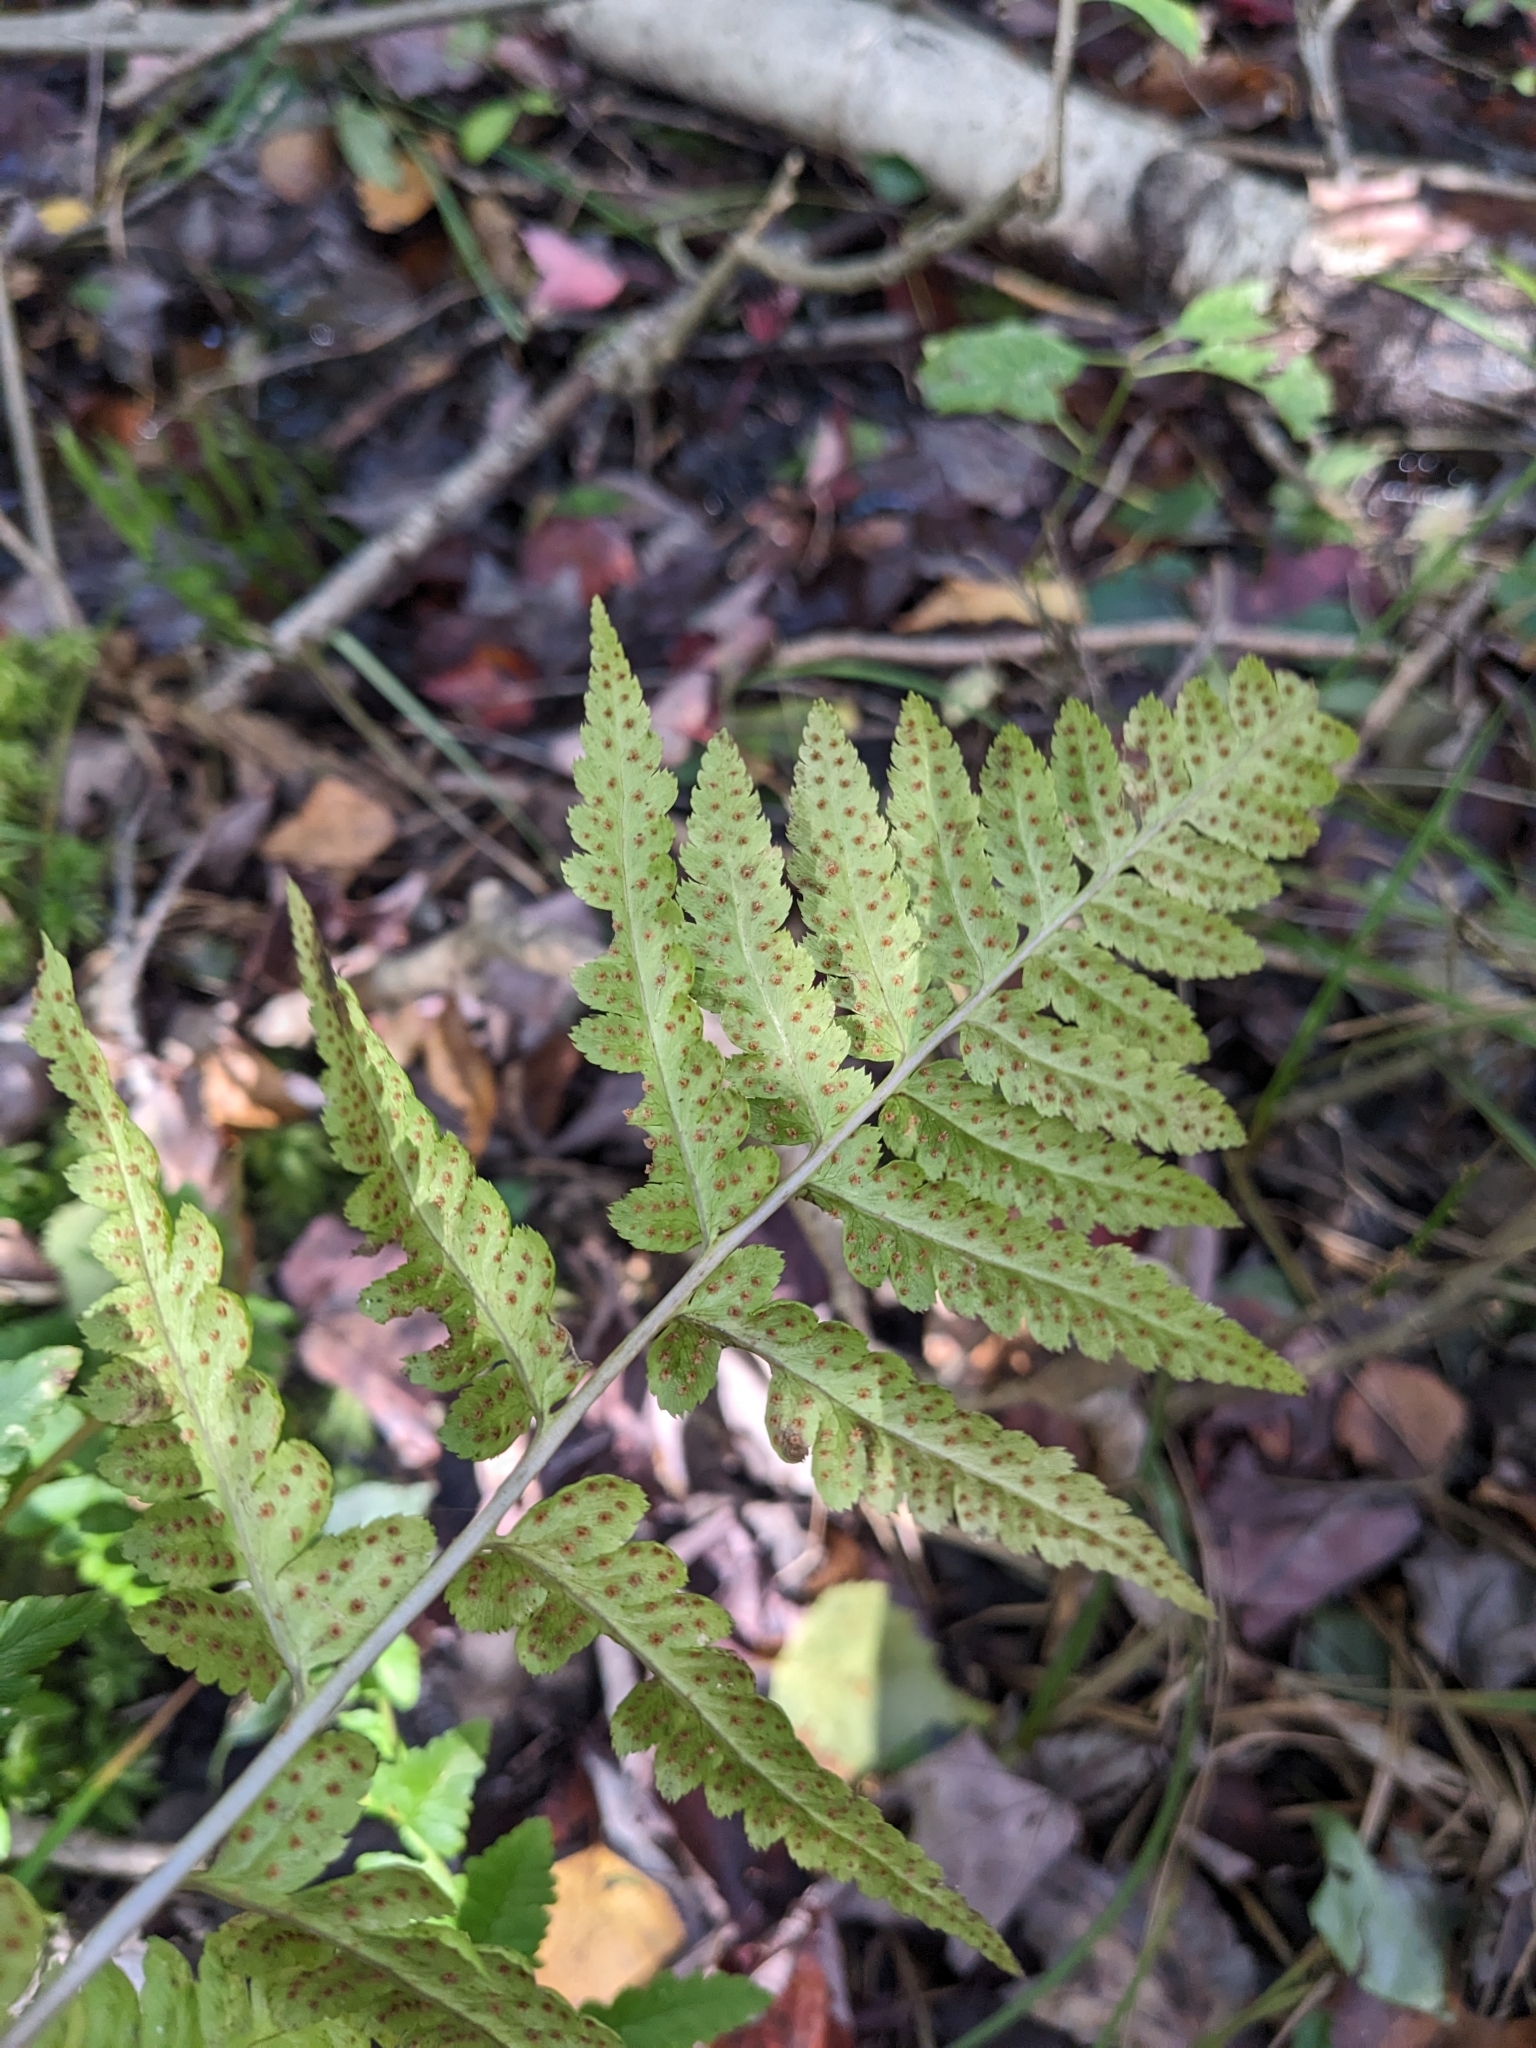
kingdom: Plantae
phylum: Tracheophyta
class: Polypodiopsida
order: Polypodiales
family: Dryopteridaceae
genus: Dryopteris
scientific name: Dryopteris cristata
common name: Crested wood fern
